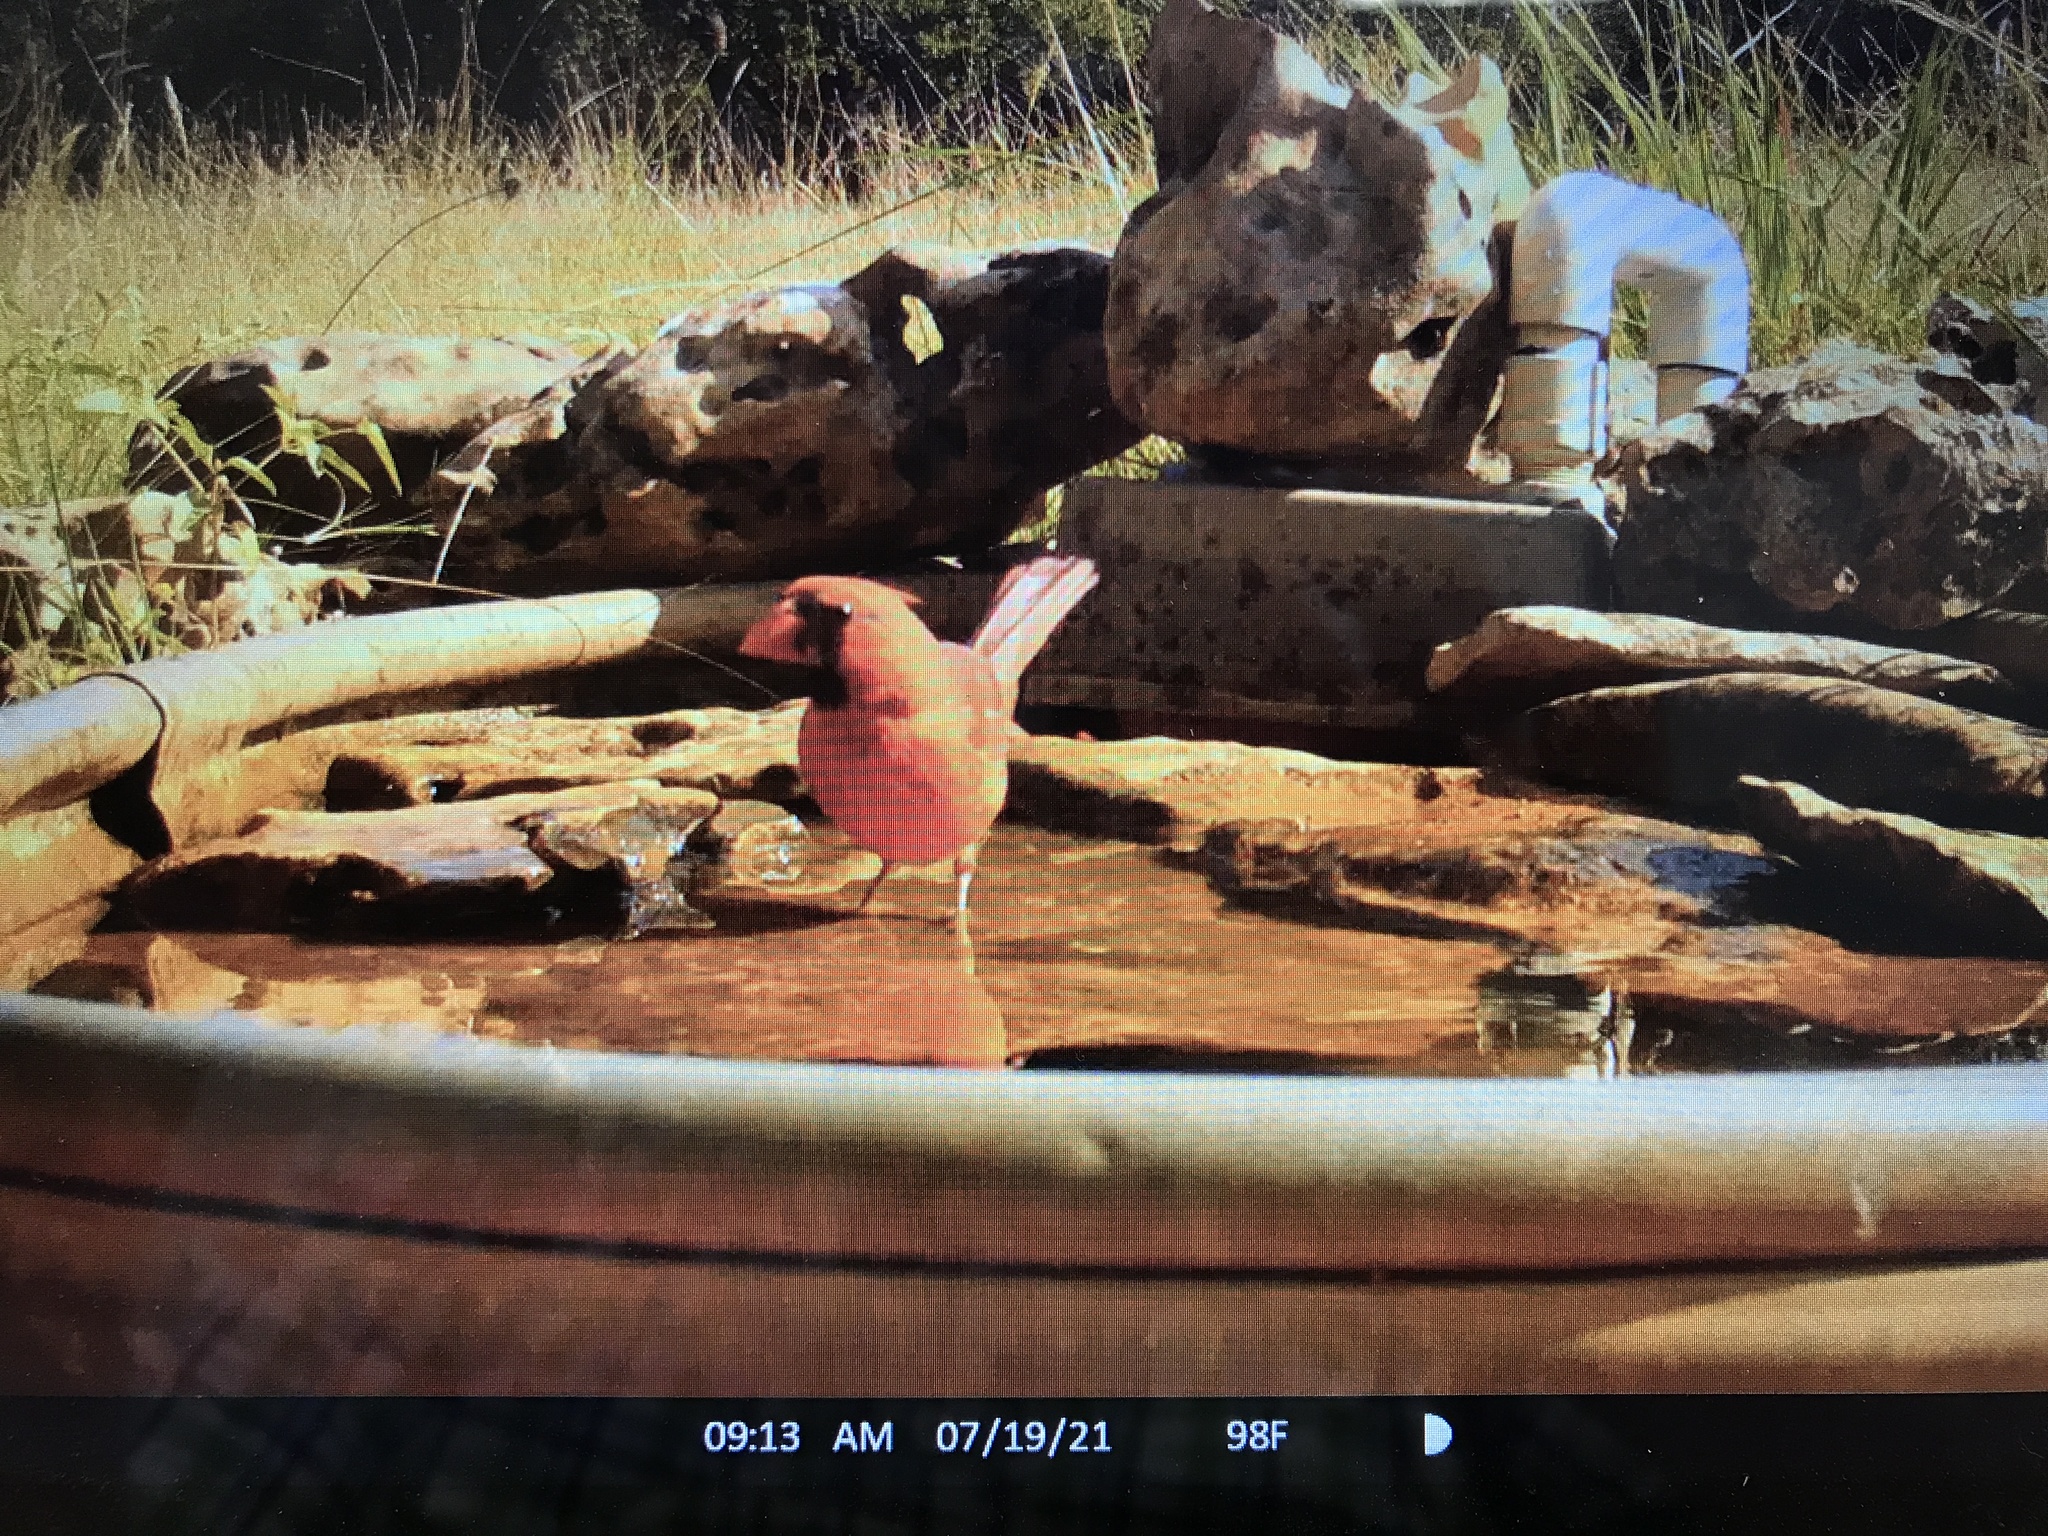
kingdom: Animalia
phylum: Chordata
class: Aves
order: Passeriformes
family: Cardinalidae
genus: Cardinalis
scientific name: Cardinalis cardinalis
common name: Northern cardinal
